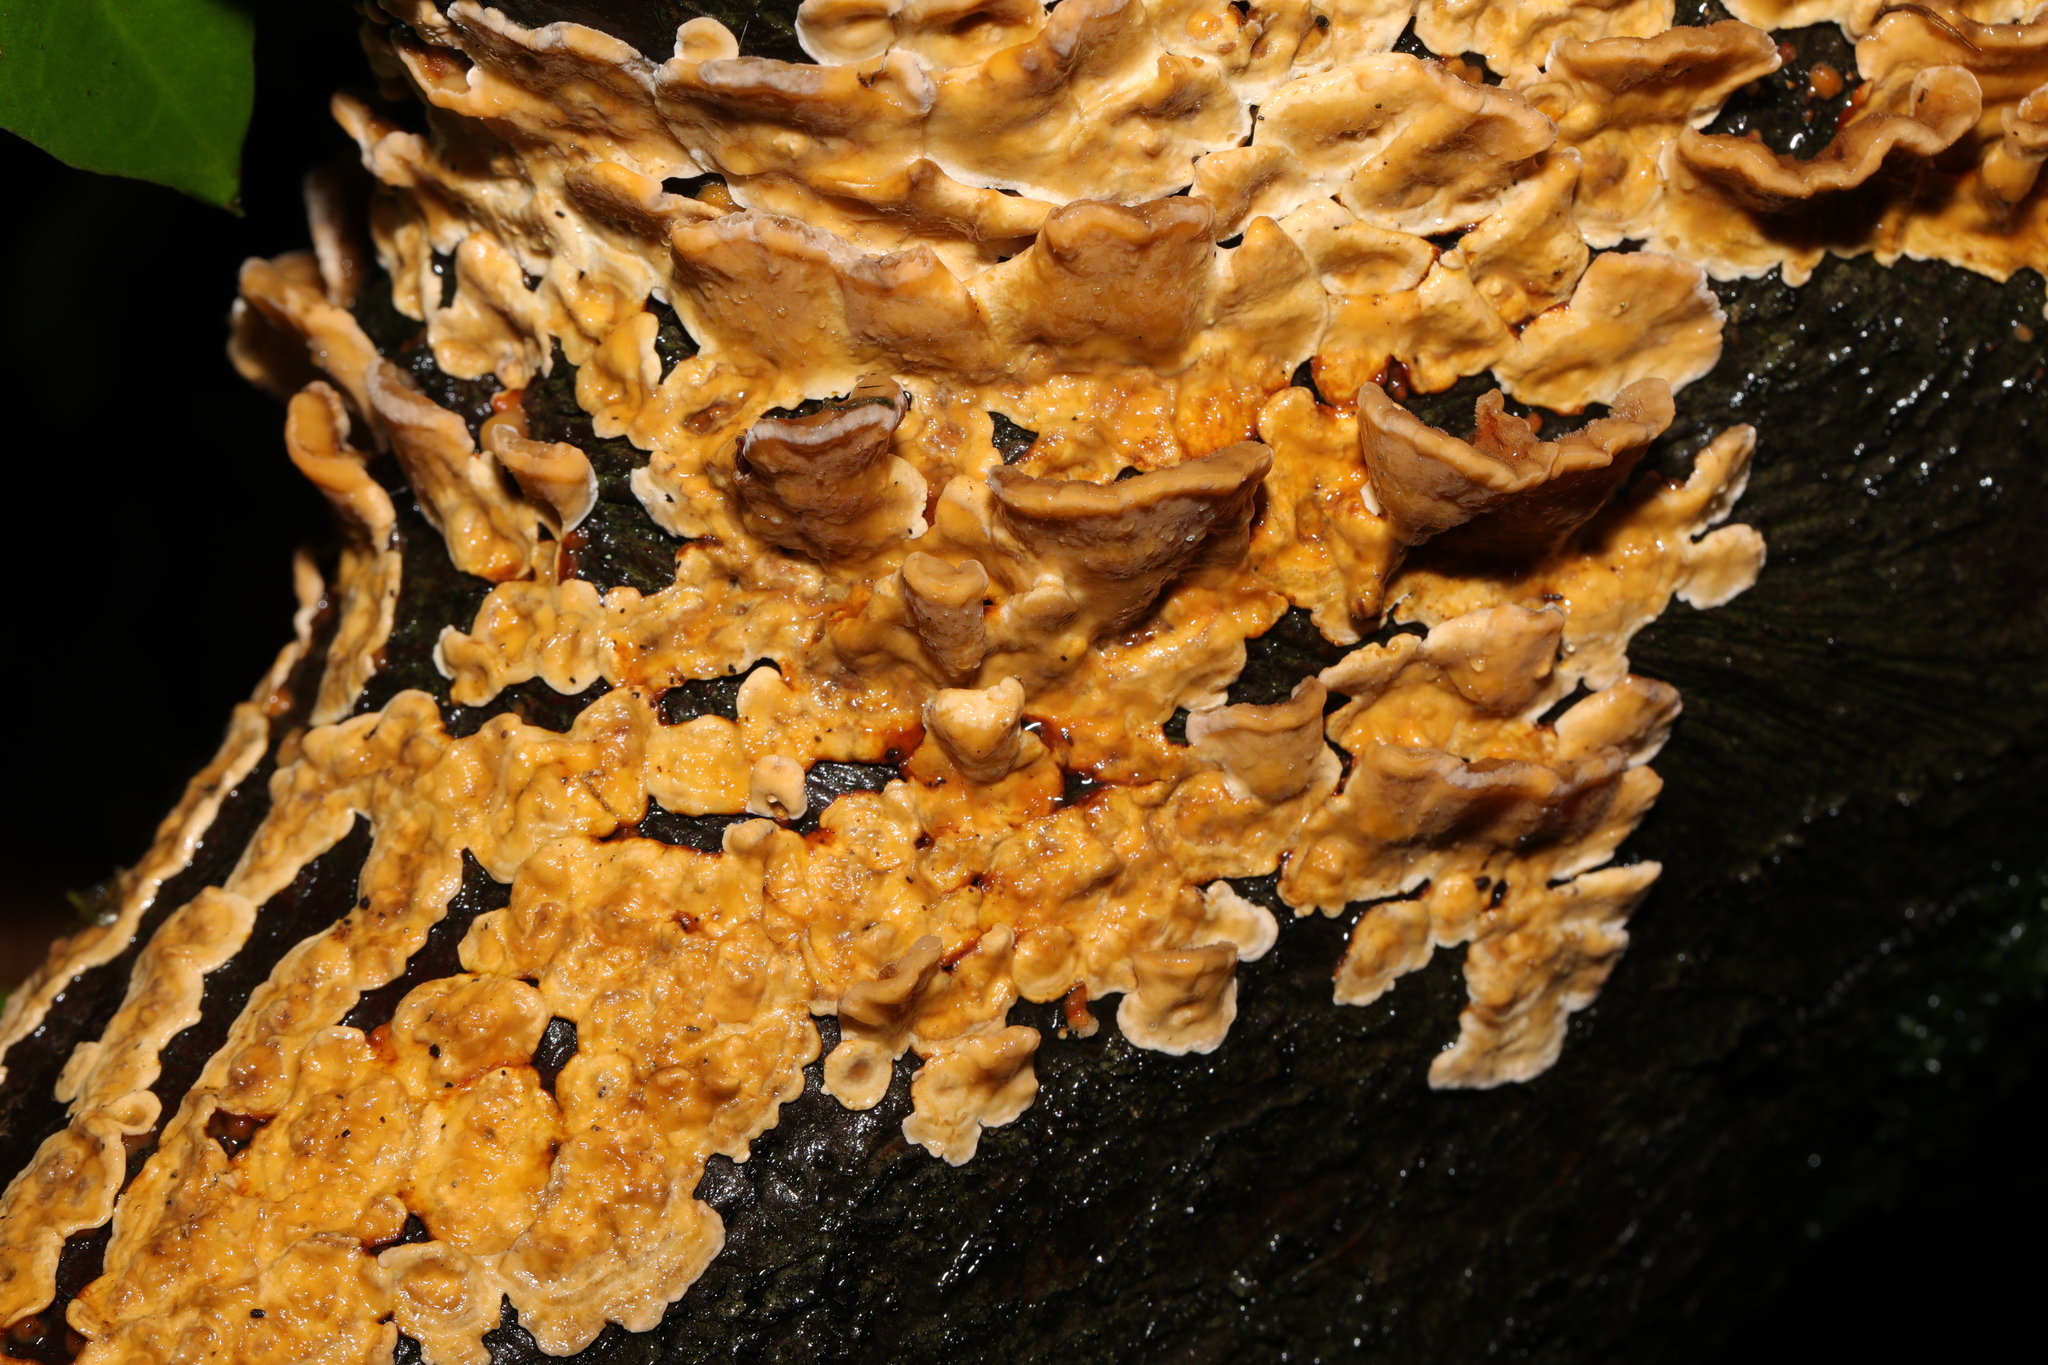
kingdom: Fungi
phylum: Basidiomycota
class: Agaricomycetes
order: Russulales
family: Stereaceae
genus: Stereum
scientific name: Stereum hirsutum
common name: Hairy curtain crust
